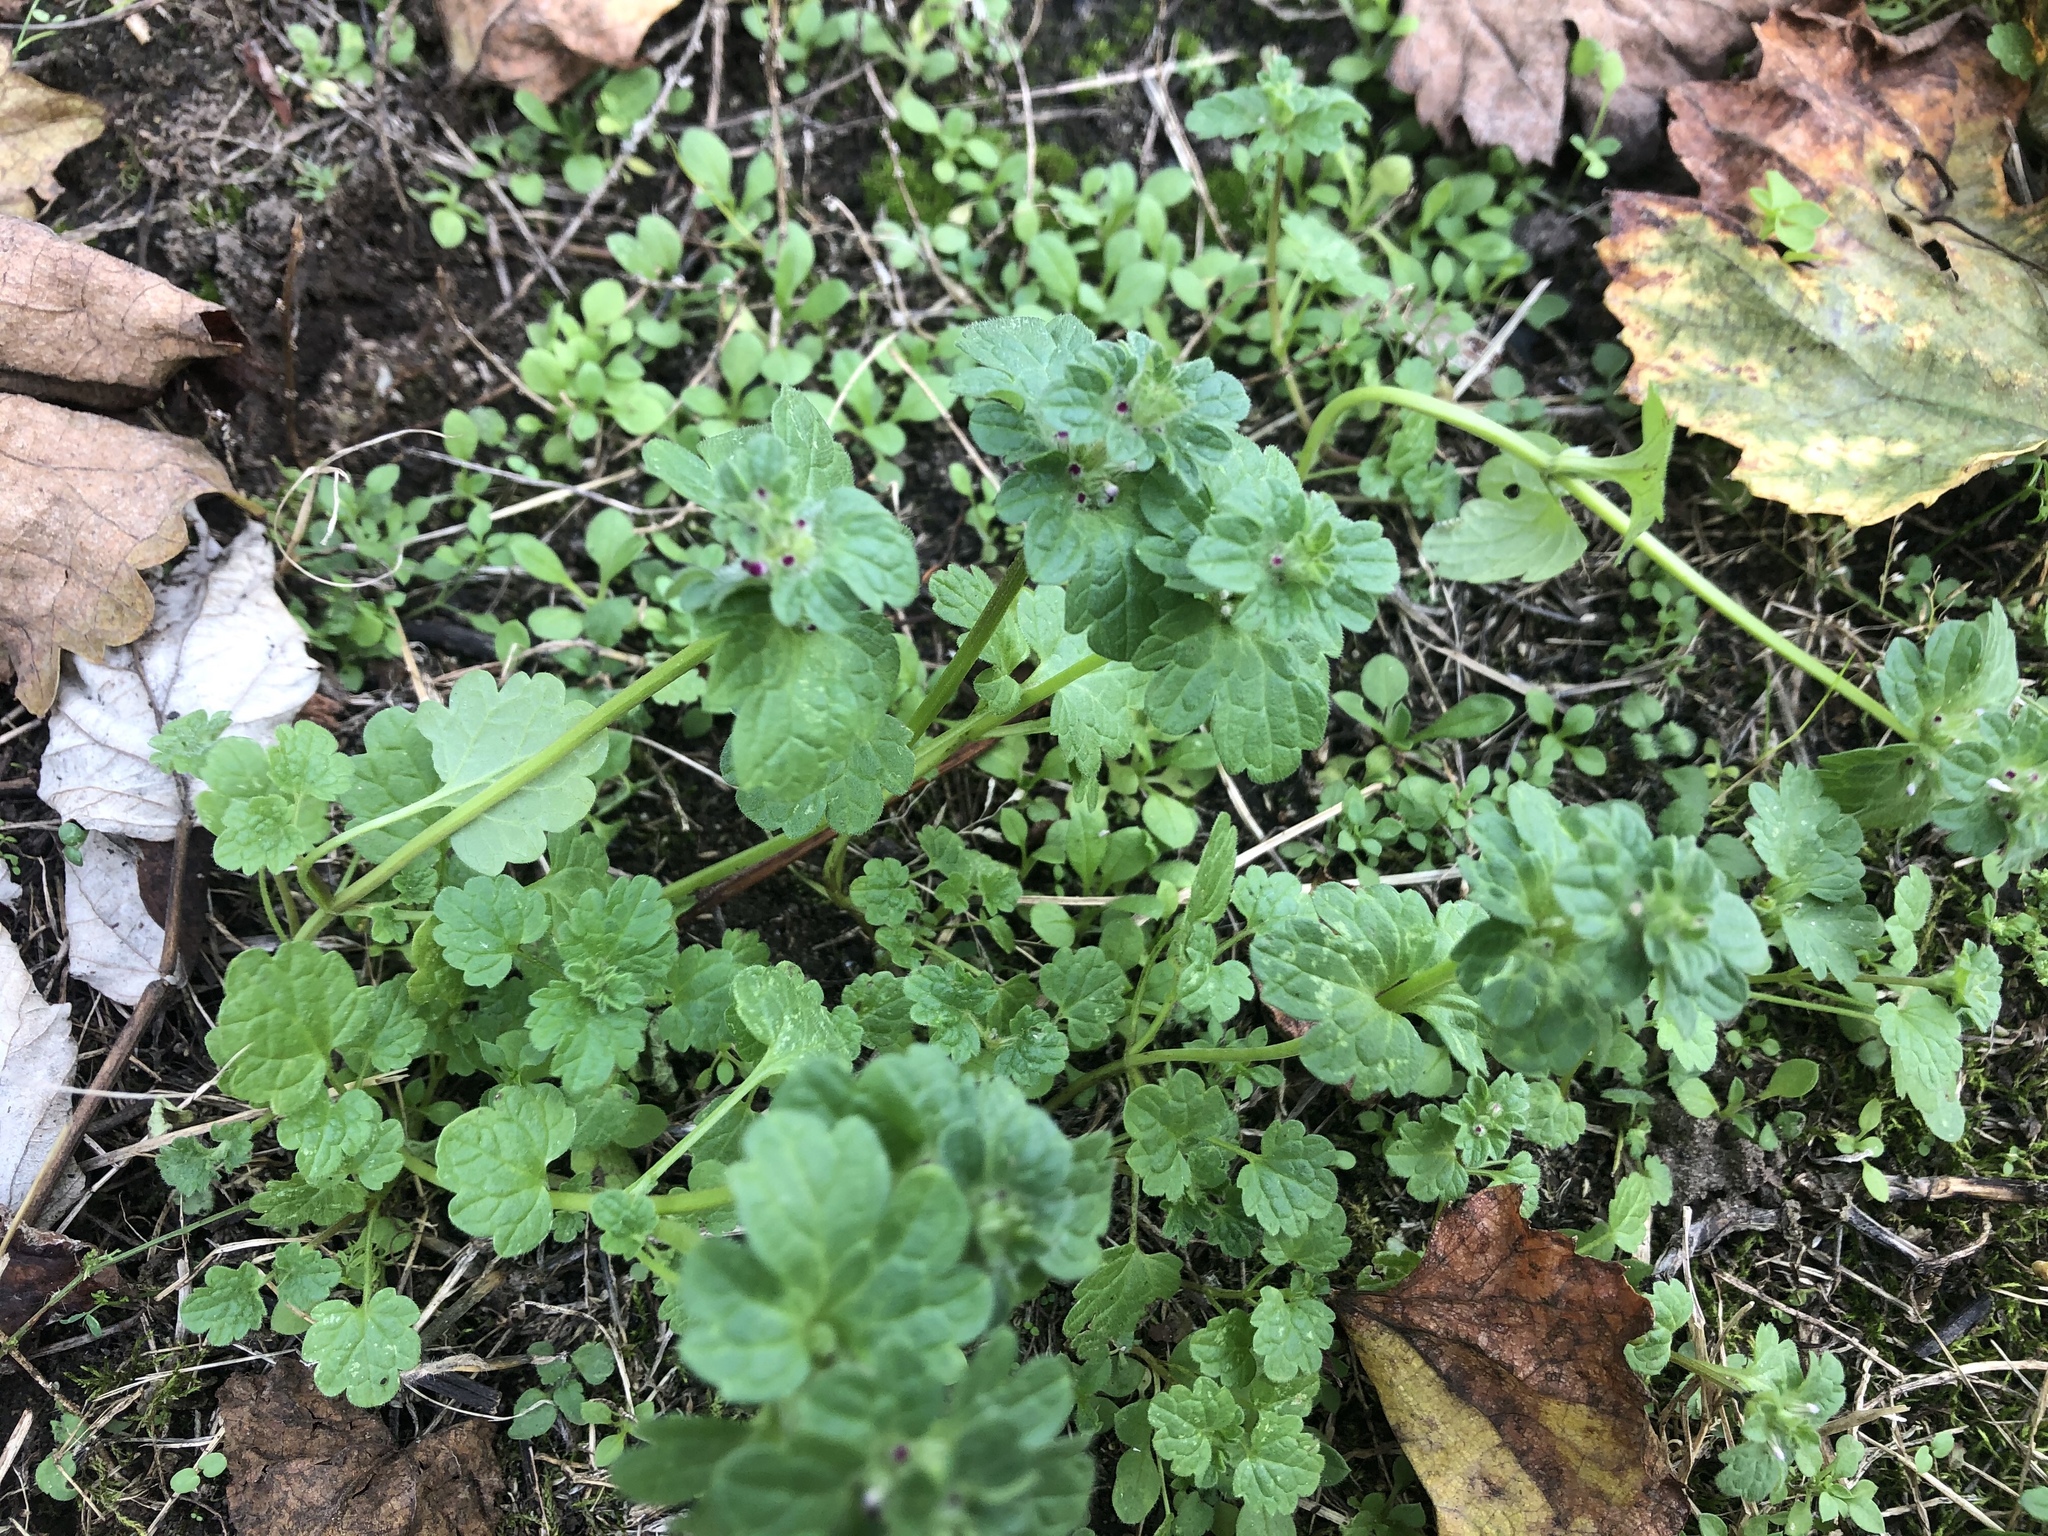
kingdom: Plantae
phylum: Tracheophyta
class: Magnoliopsida
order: Lamiales
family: Lamiaceae
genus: Lamium
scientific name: Lamium amplexicaule
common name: Henbit dead-nettle
